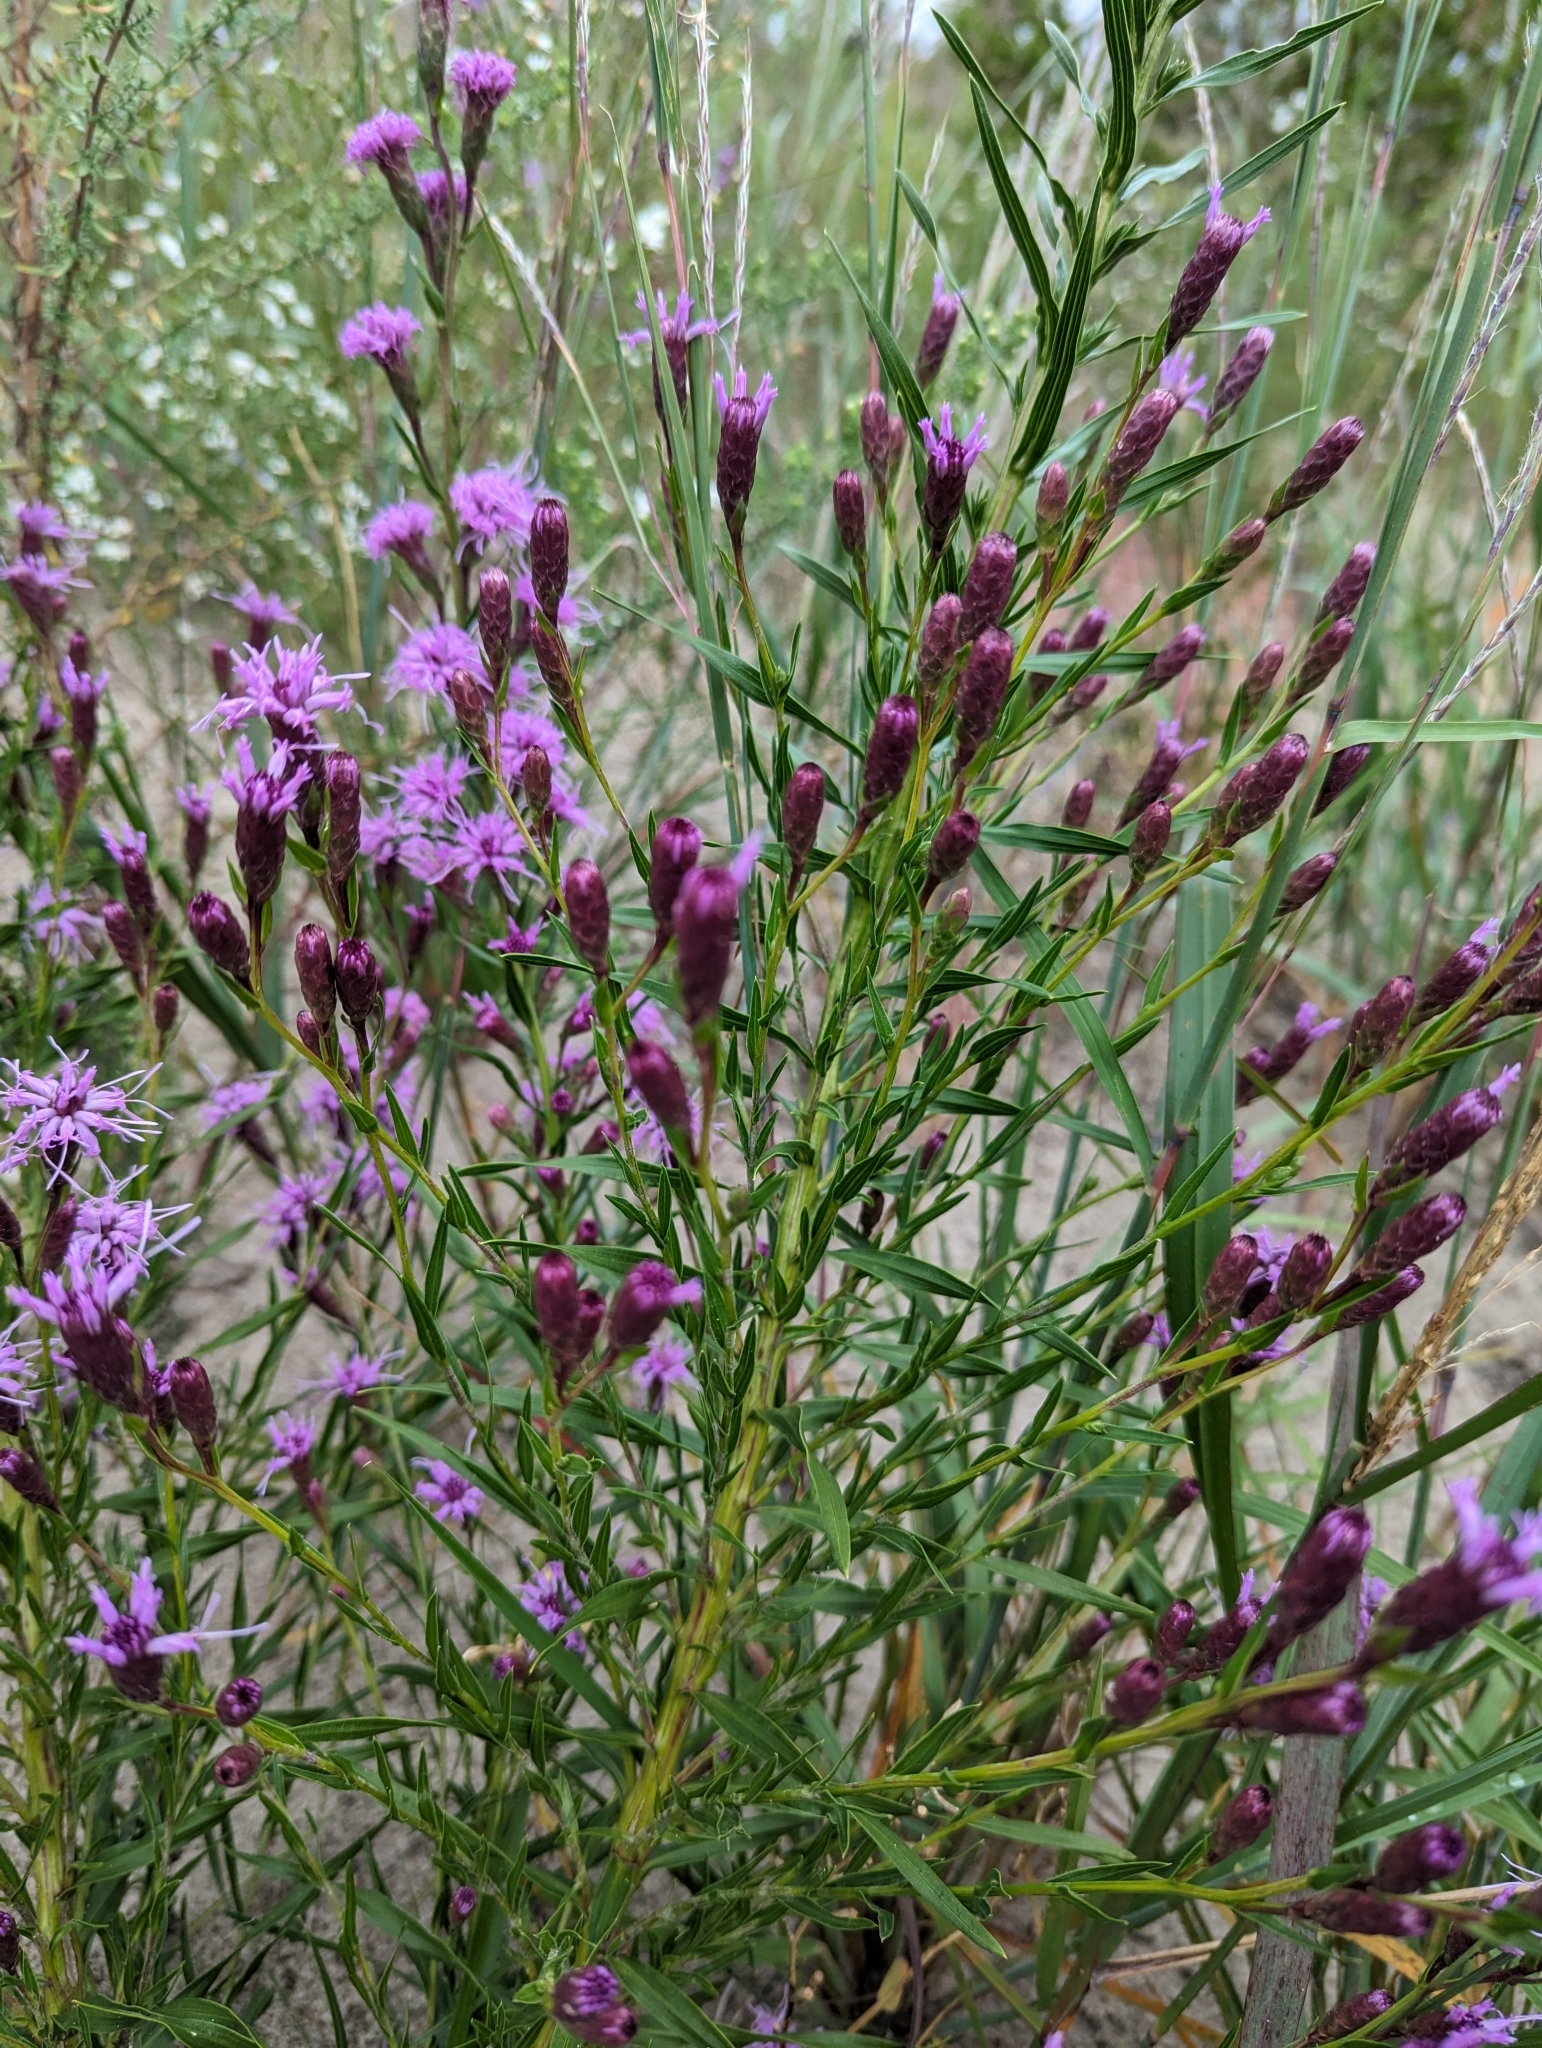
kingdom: Plantae
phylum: Tracheophyta
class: Magnoliopsida
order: Asterales
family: Asteraceae
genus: Liatris
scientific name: Liatris cylindracea
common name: Few-head blazingstar
